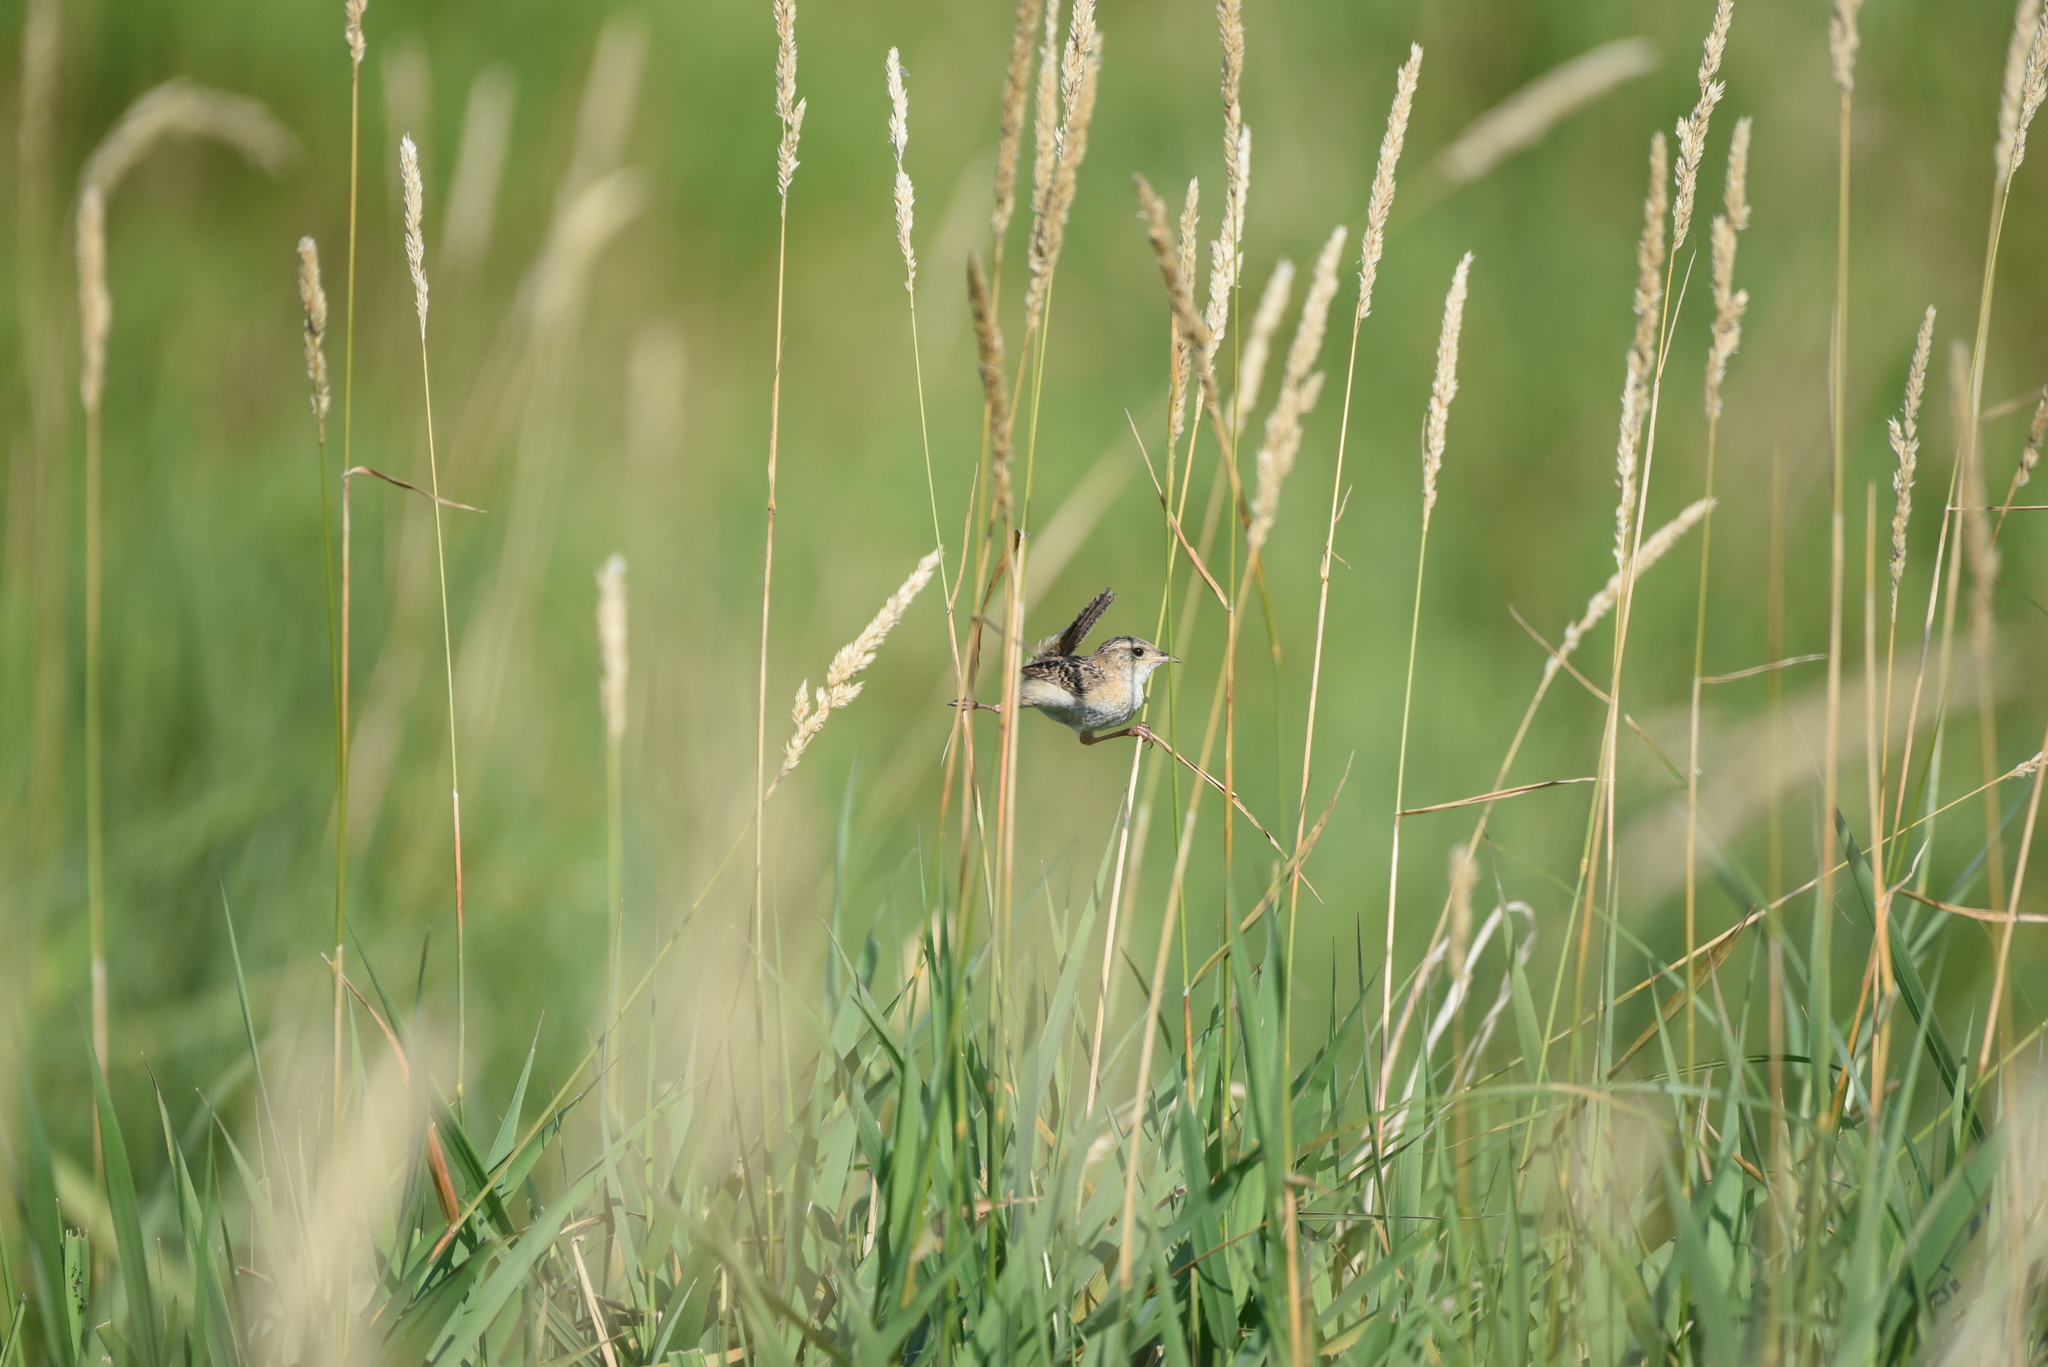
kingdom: Animalia
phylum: Chordata
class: Aves
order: Passeriformes
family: Troglodytidae
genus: Cistothorus
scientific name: Cistothorus platensis
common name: Sedge wren
